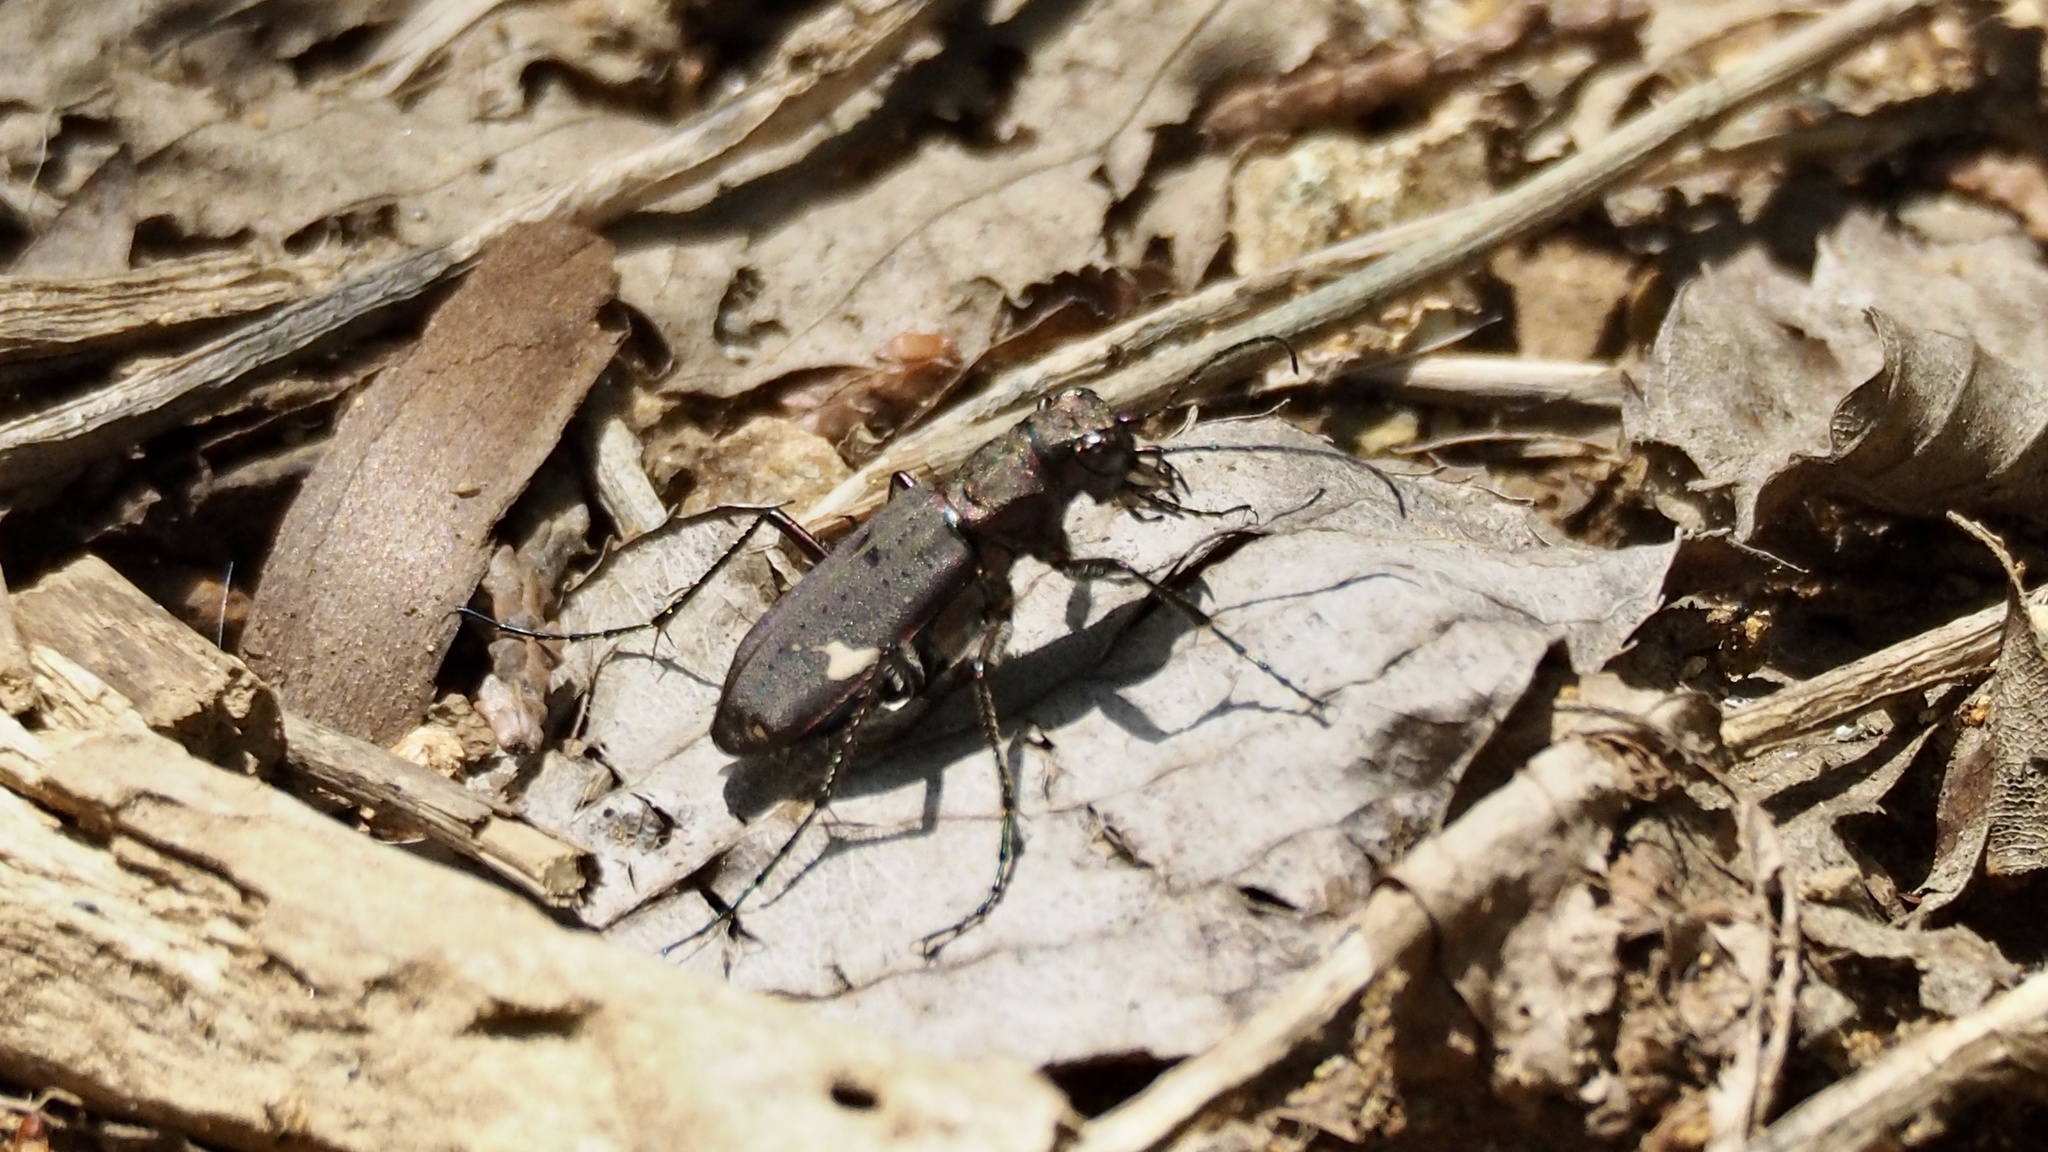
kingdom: Animalia
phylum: Arthropoda
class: Insecta
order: Coleoptera
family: Carabidae
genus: Cicindela
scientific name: Cicindela japana
